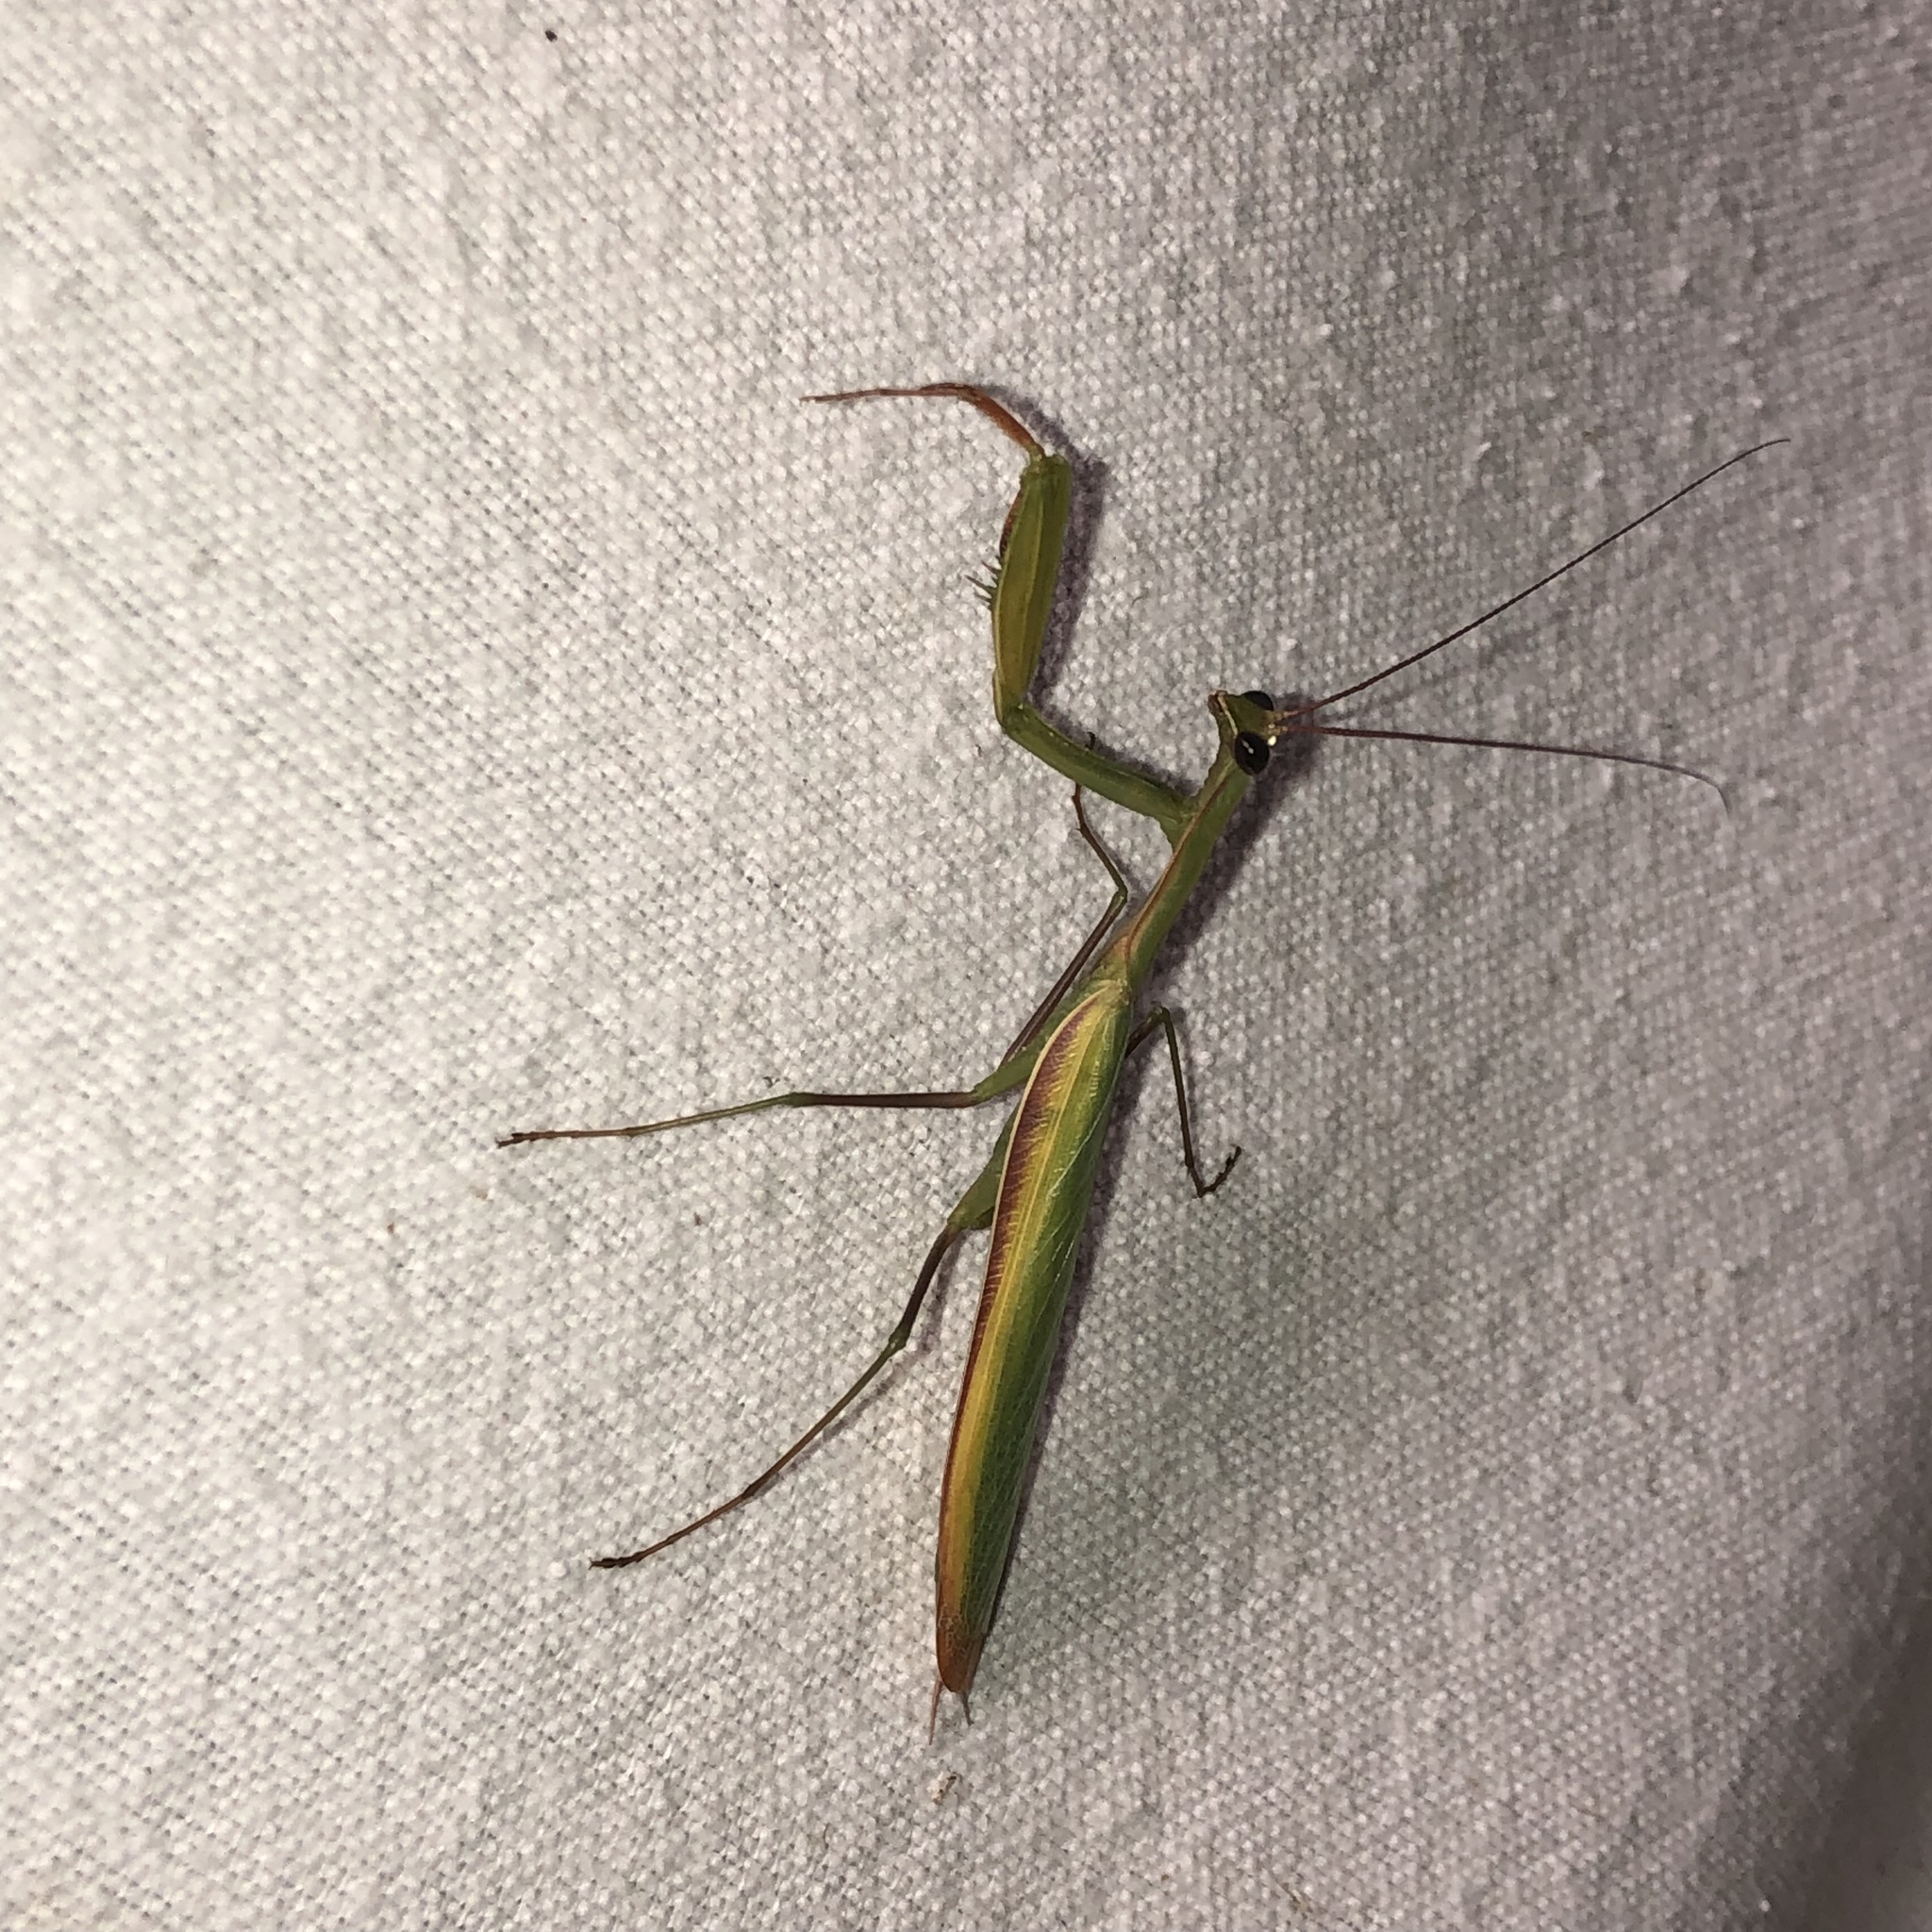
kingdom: Animalia
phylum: Arthropoda
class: Insecta
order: Mantodea
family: Mantidae
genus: Mantis
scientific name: Mantis religiosa
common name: Praying mantis
